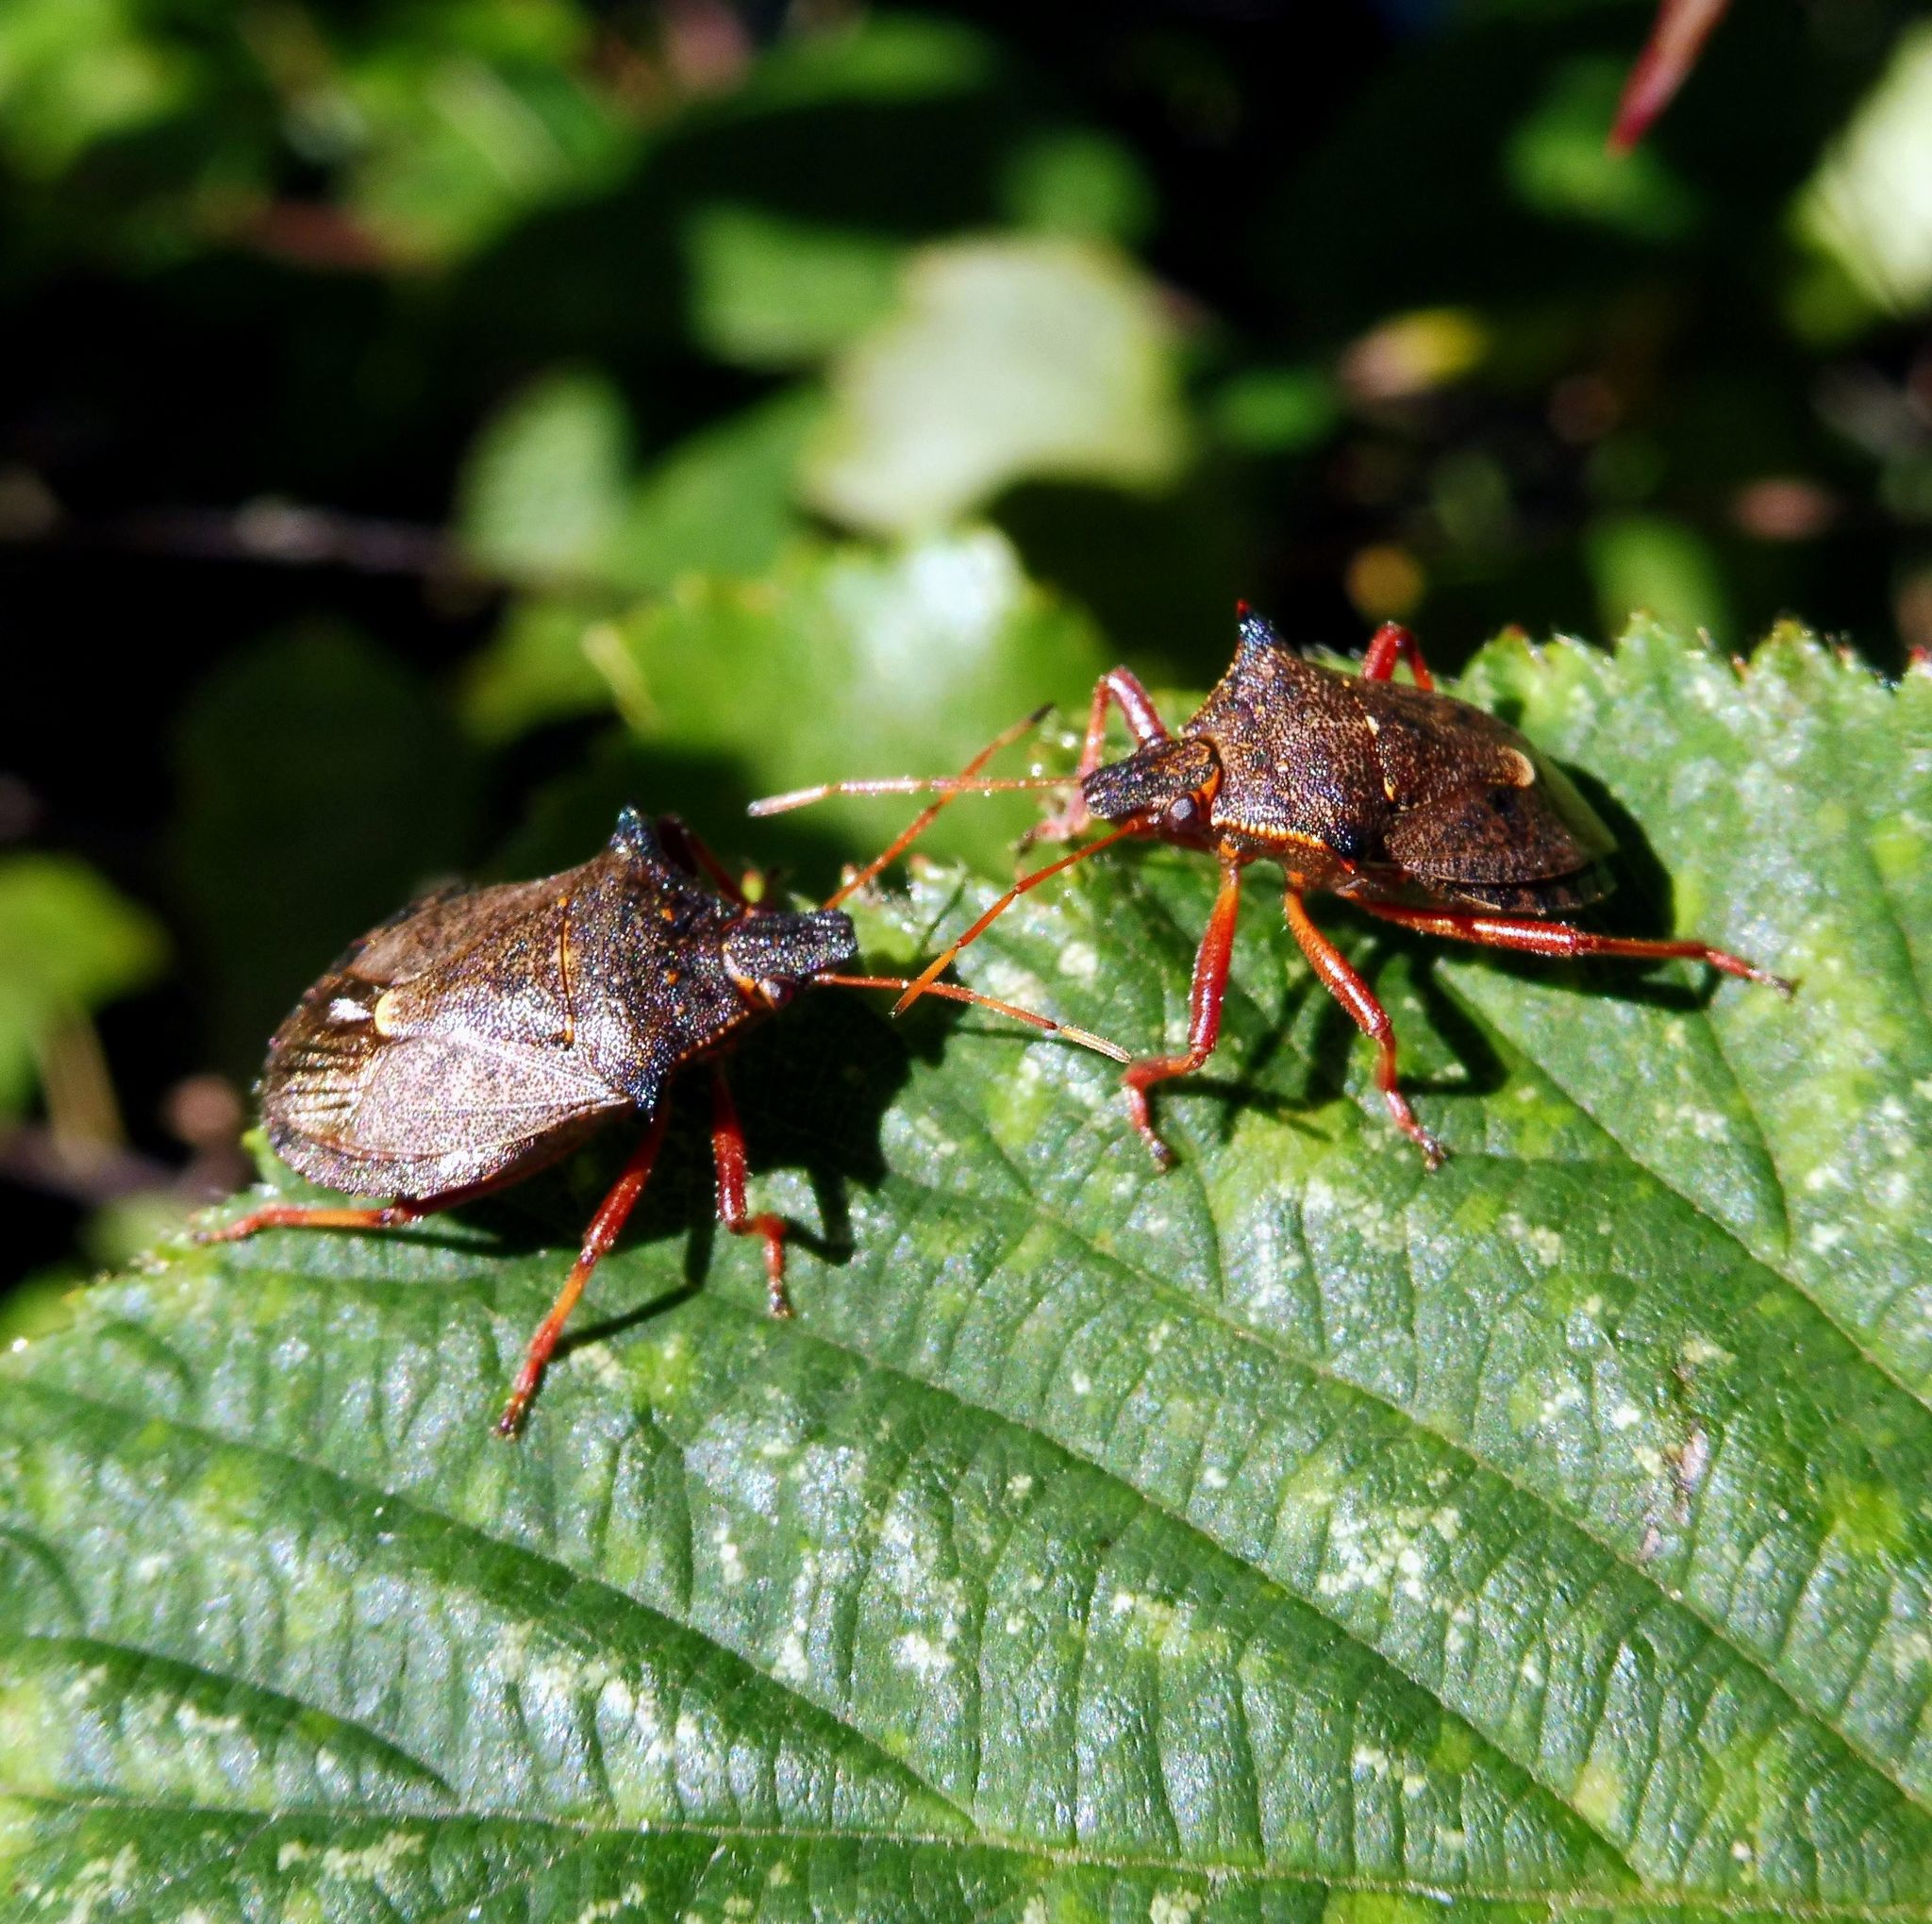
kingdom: Animalia
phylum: Arthropoda
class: Insecta
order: Hemiptera
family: Pentatomidae
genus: Picromerus
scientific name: Picromerus bidens
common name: Spiked shieldbug
